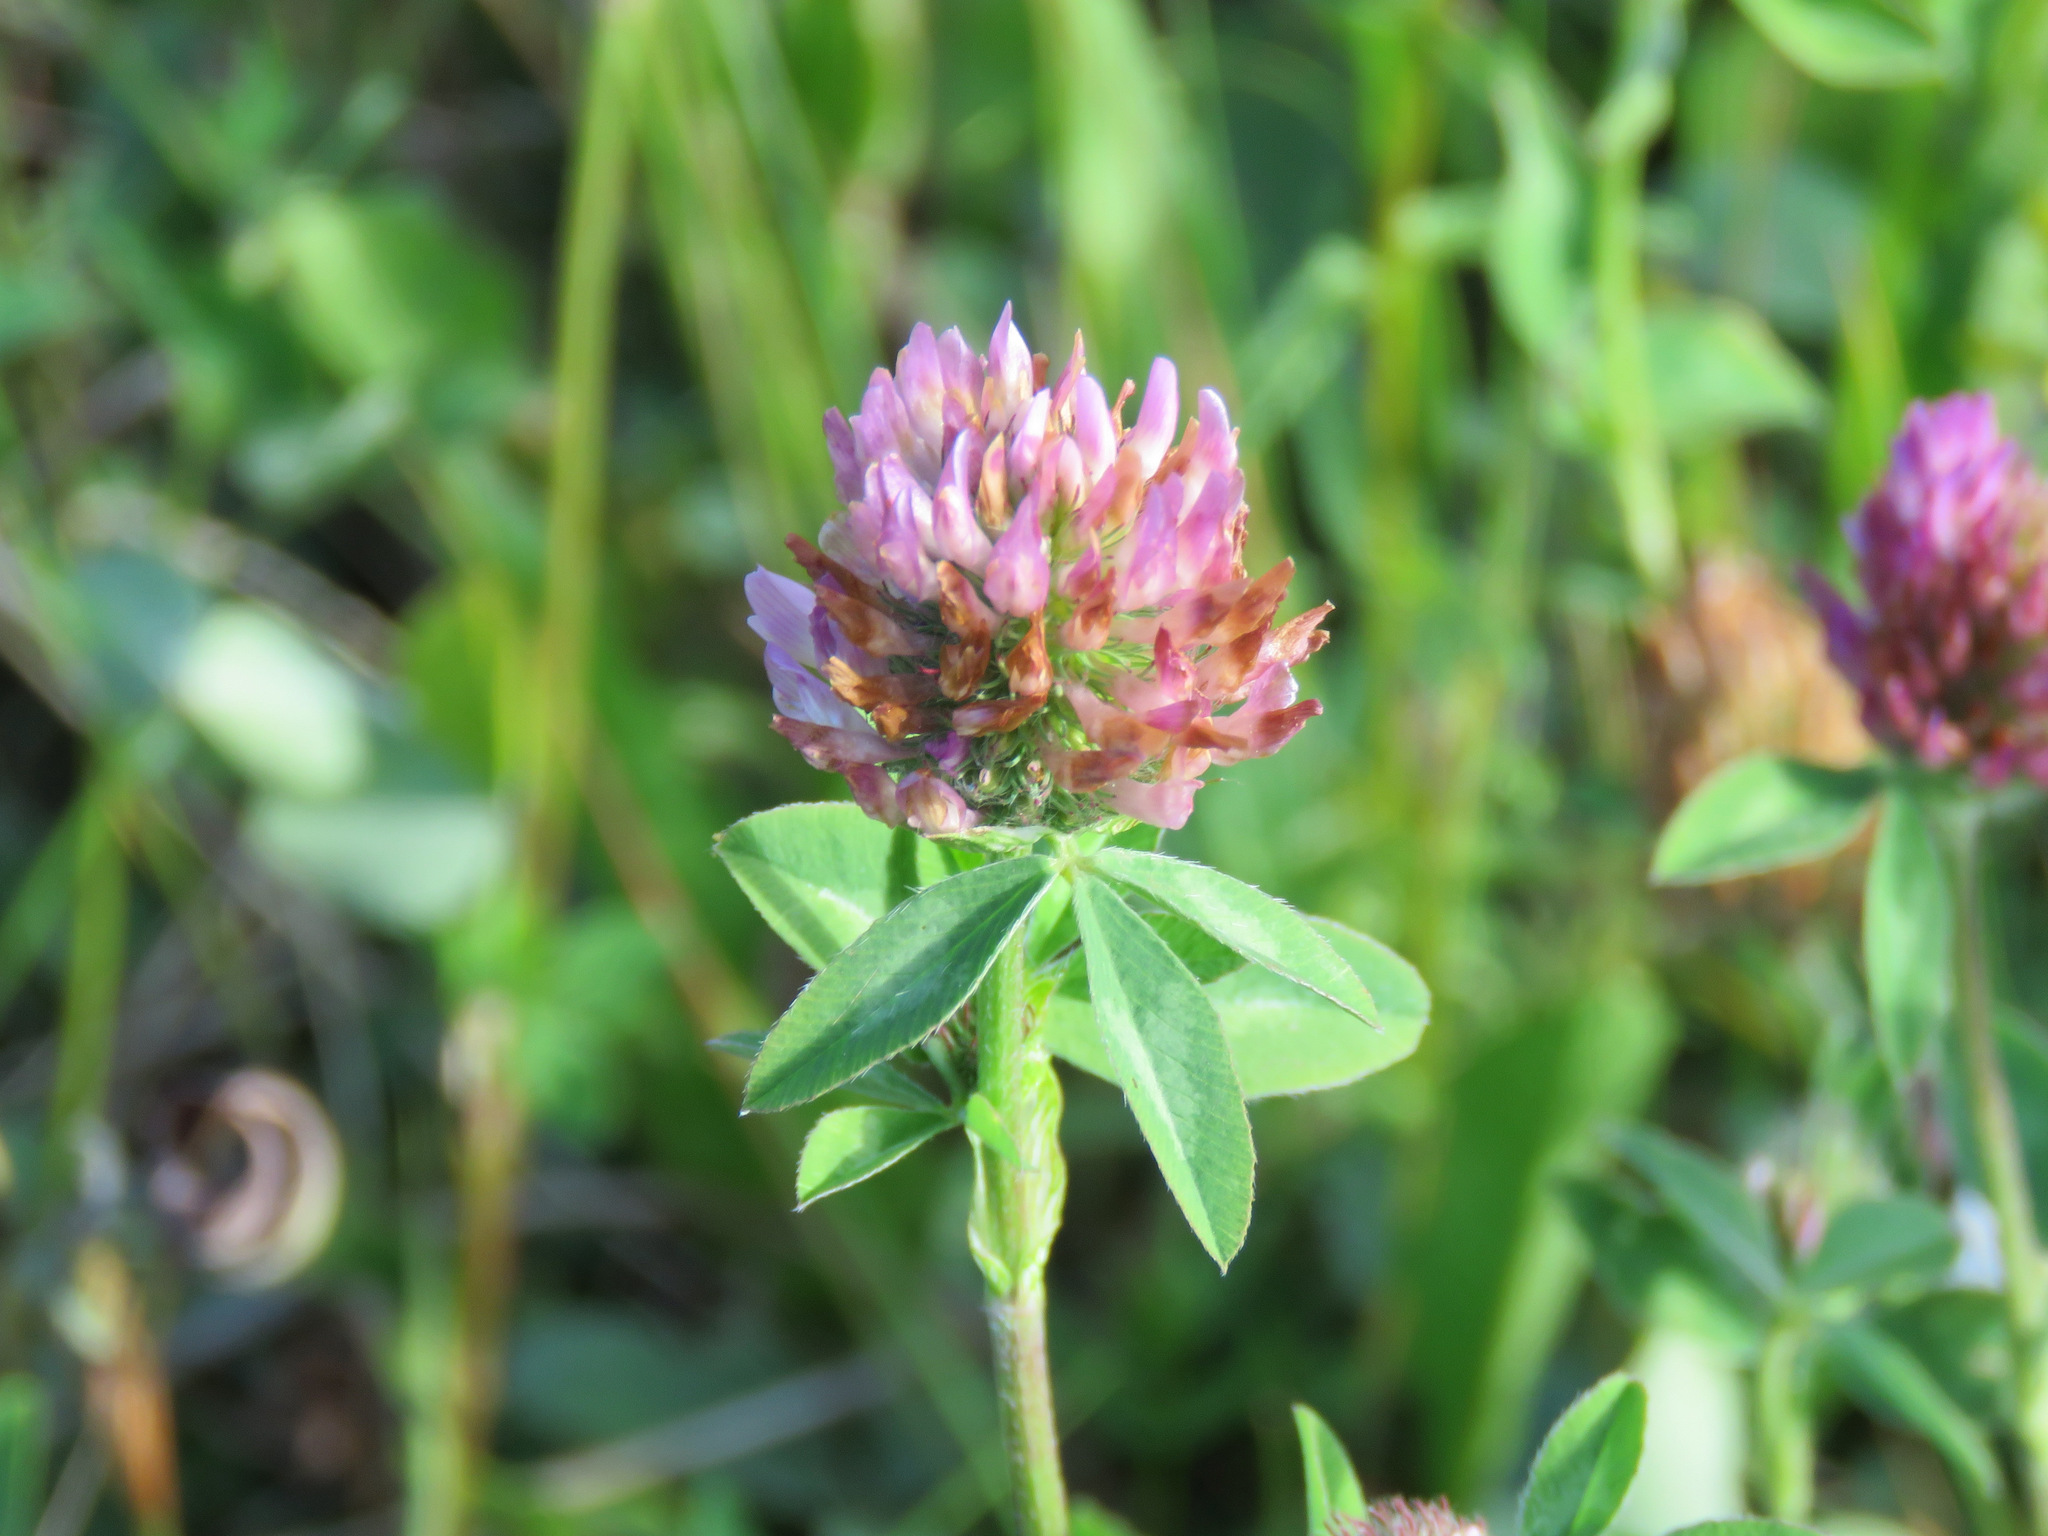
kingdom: Plantae
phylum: Tracheophyta
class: Magnoliopsida
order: Fabales
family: Fabaceae
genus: Trifolium
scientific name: Trifolium pratense
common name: Red clover
